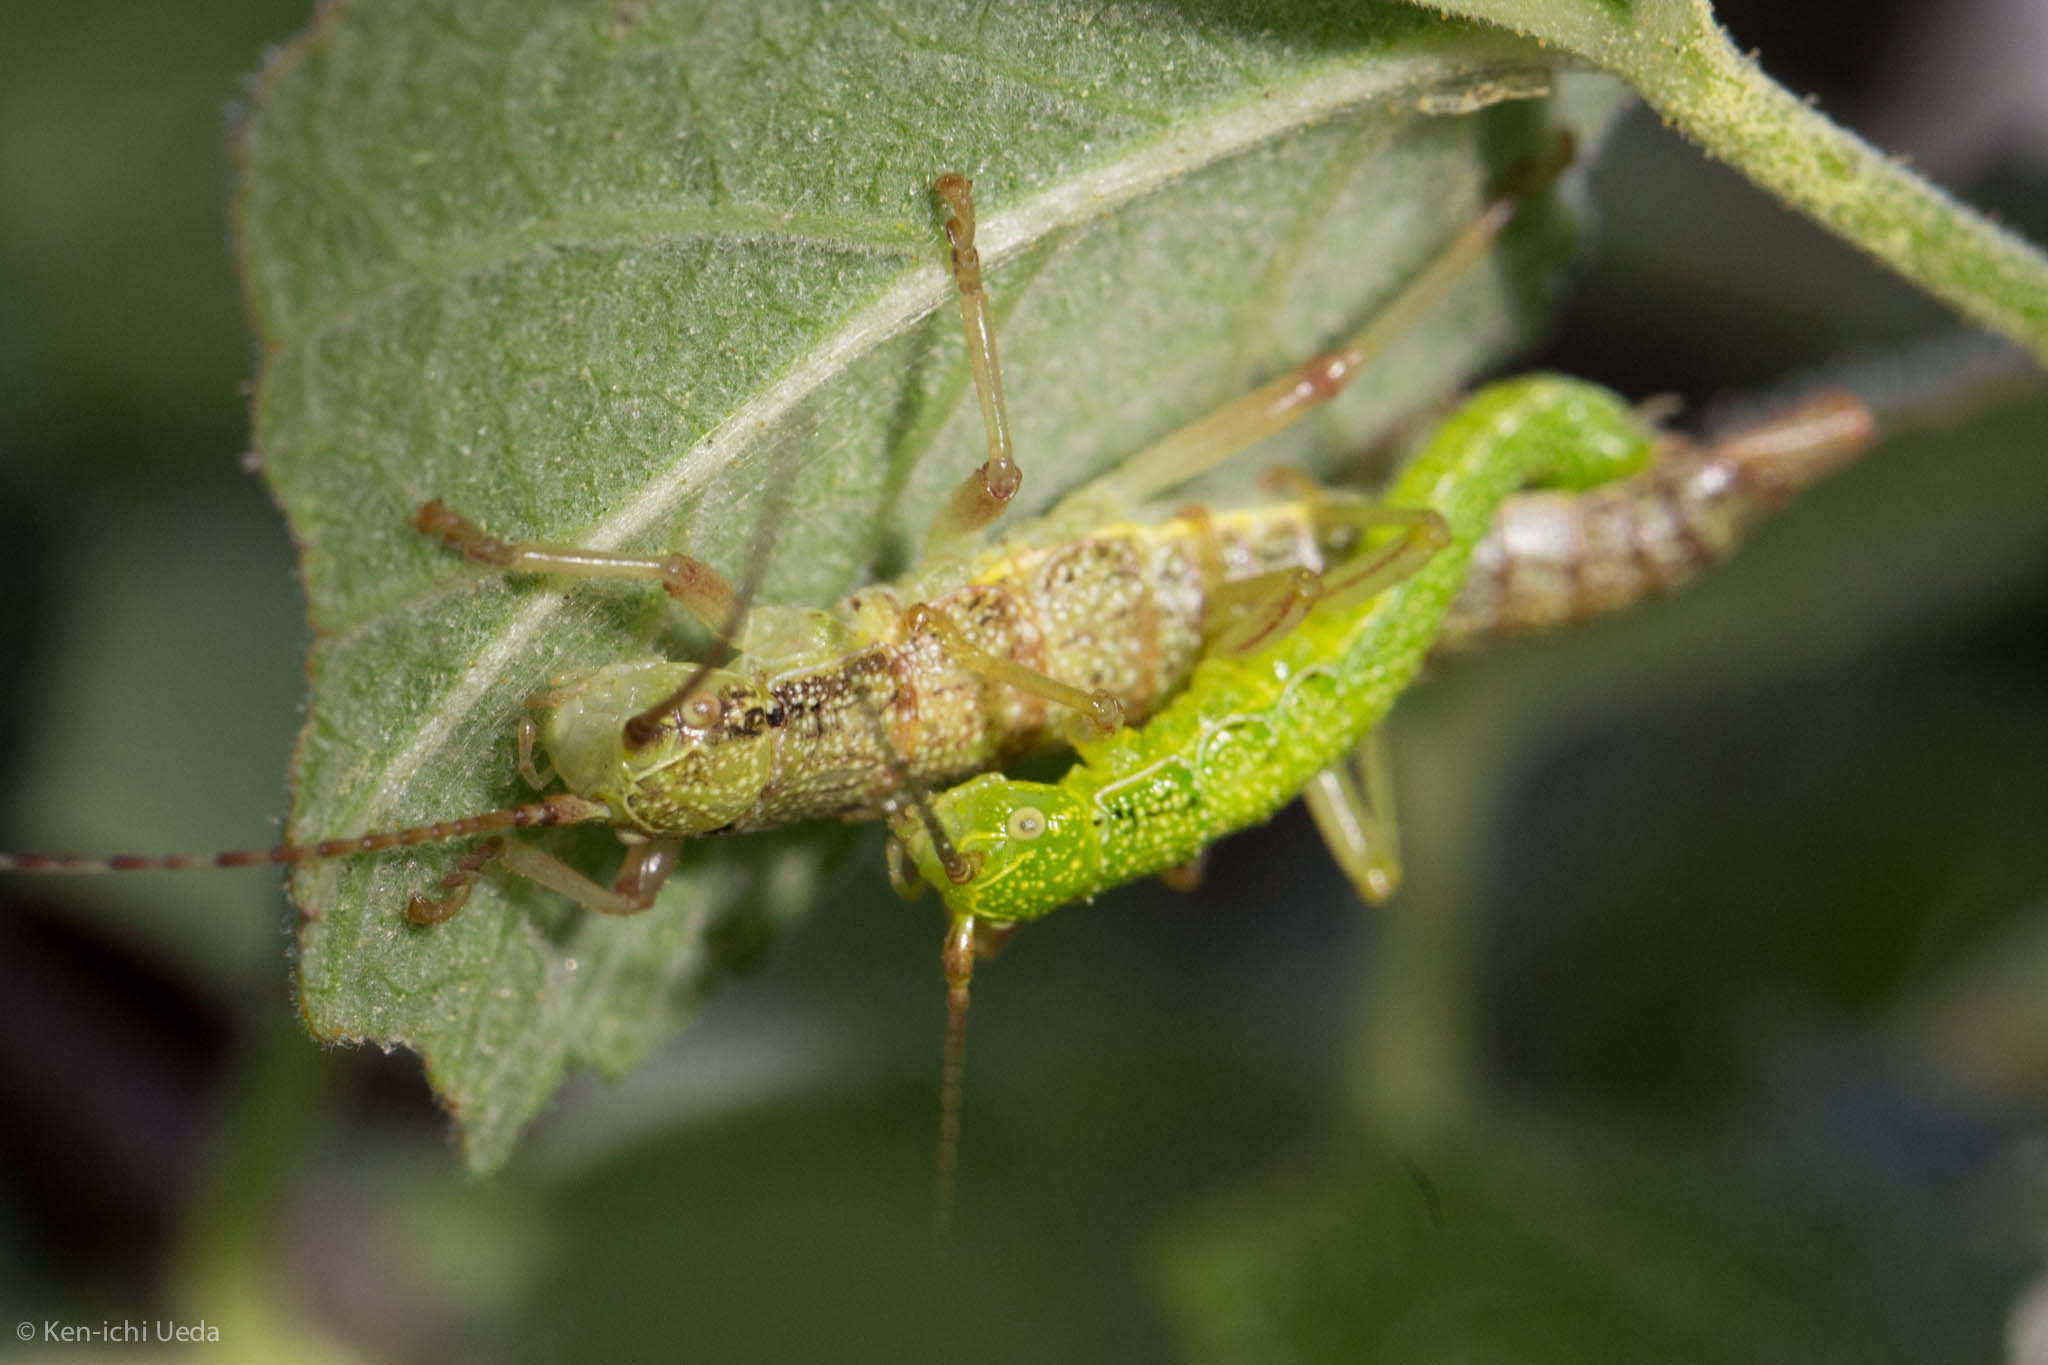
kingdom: Animalia
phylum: Arthropoda
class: Insecta
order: Phasmida
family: Timematidae
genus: Timema
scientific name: Timema californicum
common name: California timema
